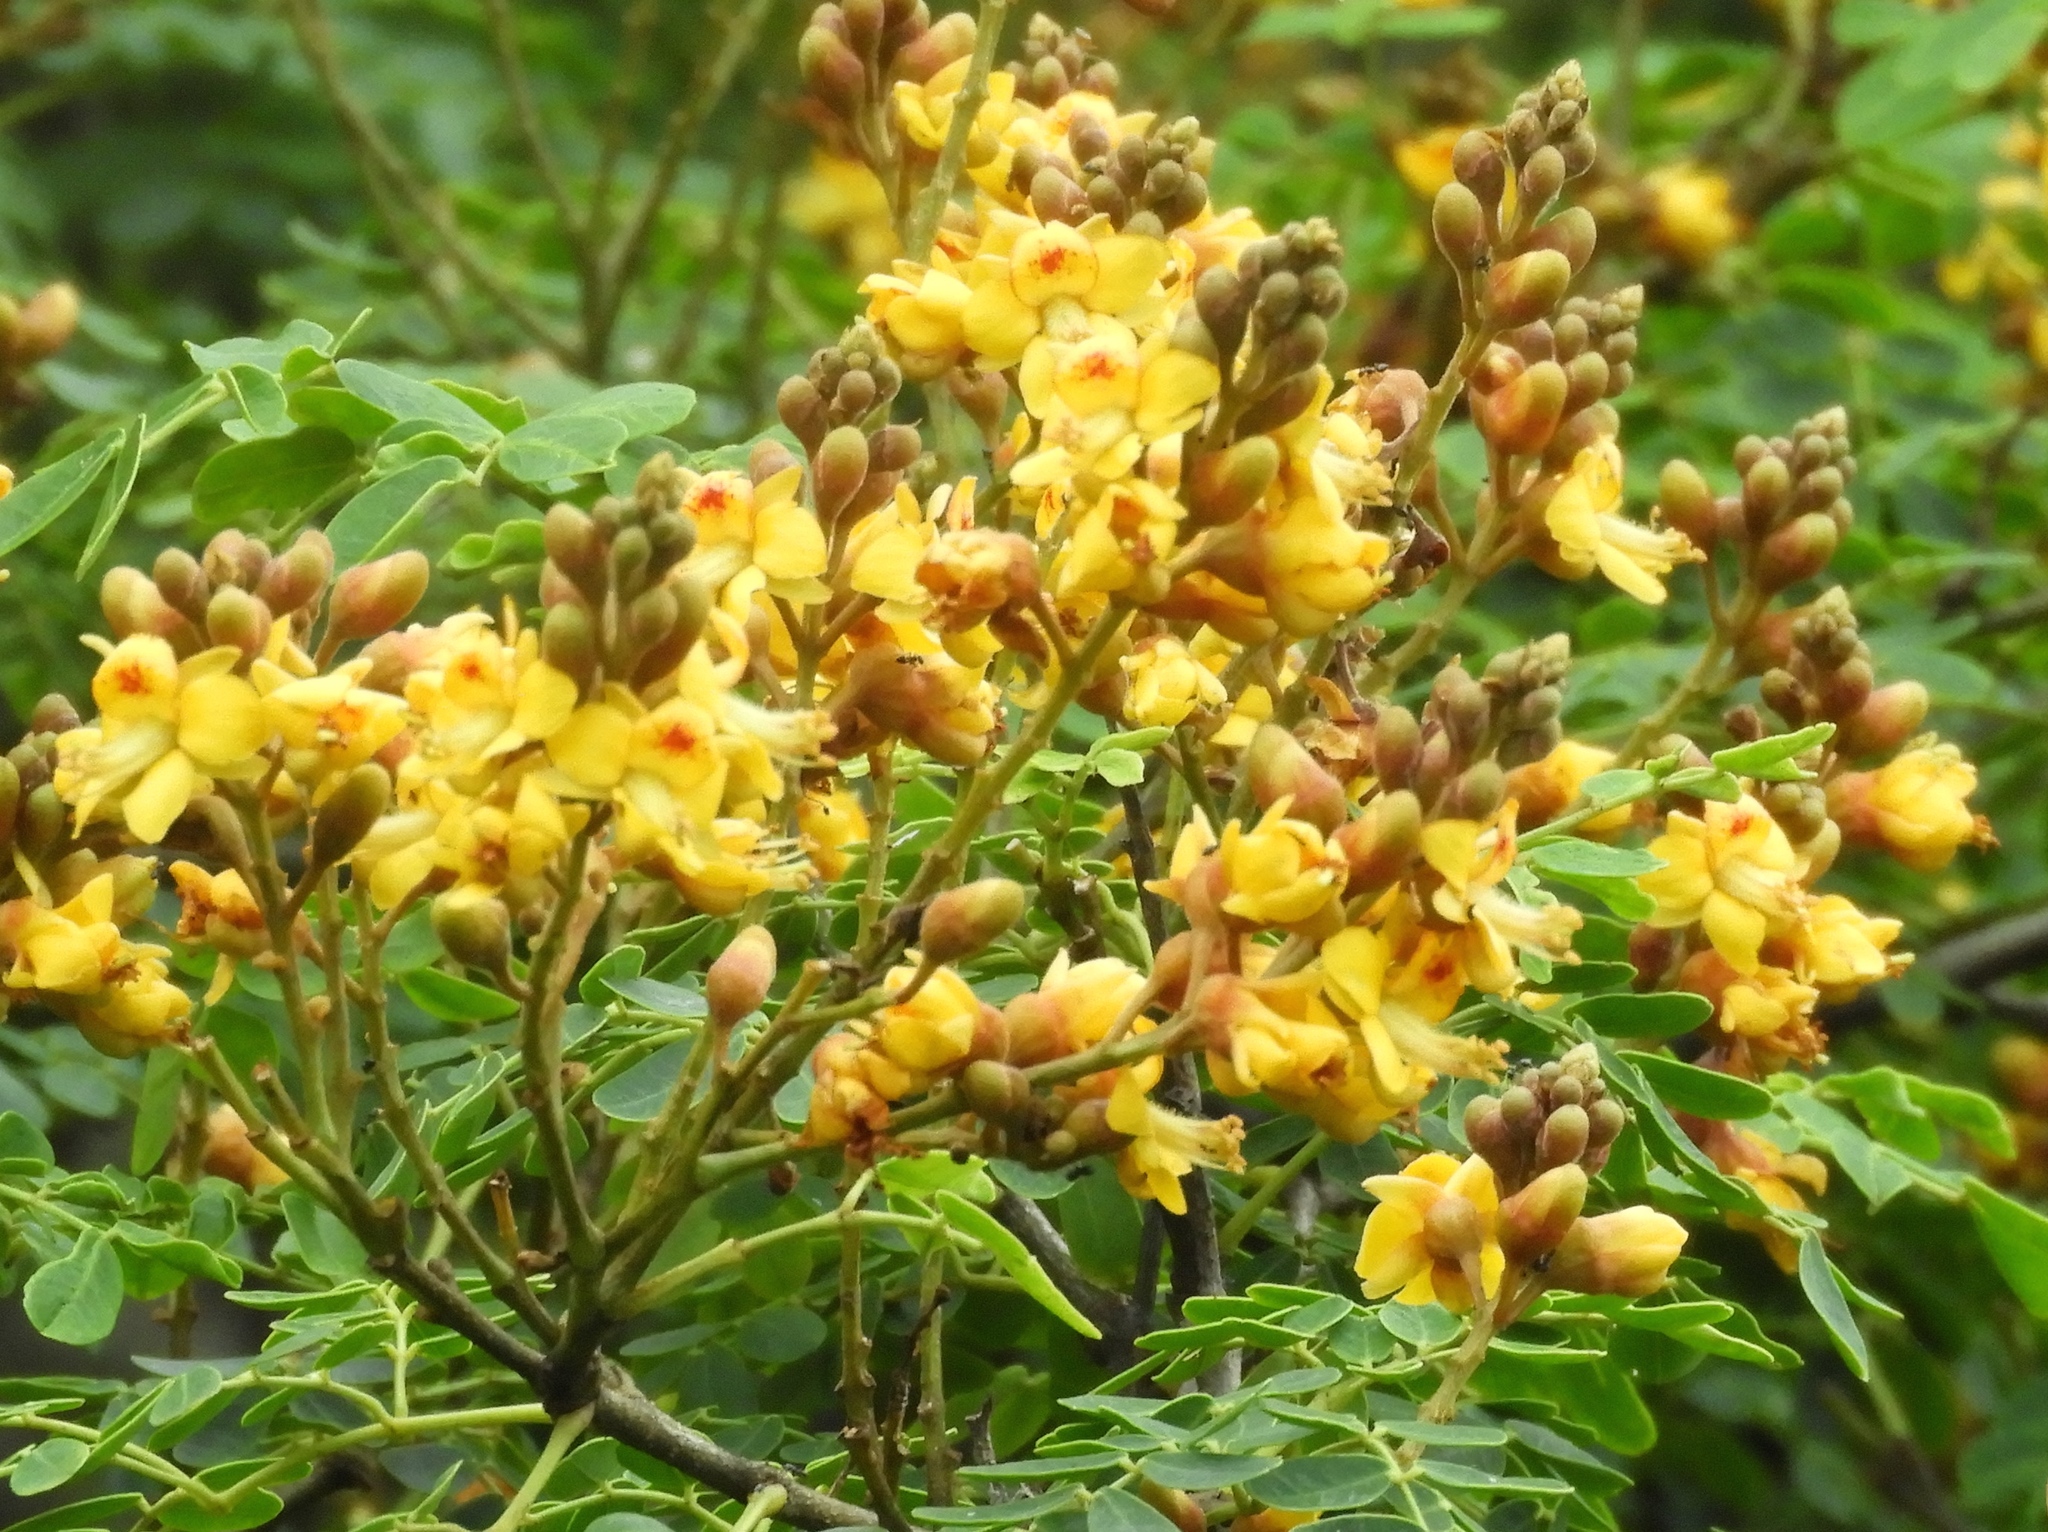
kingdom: Plantae
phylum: Tracheophyta
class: Magnoliopsida
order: Fabales
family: Fabaceae
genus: Libidibia
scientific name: Libidibia sclerocarpa
